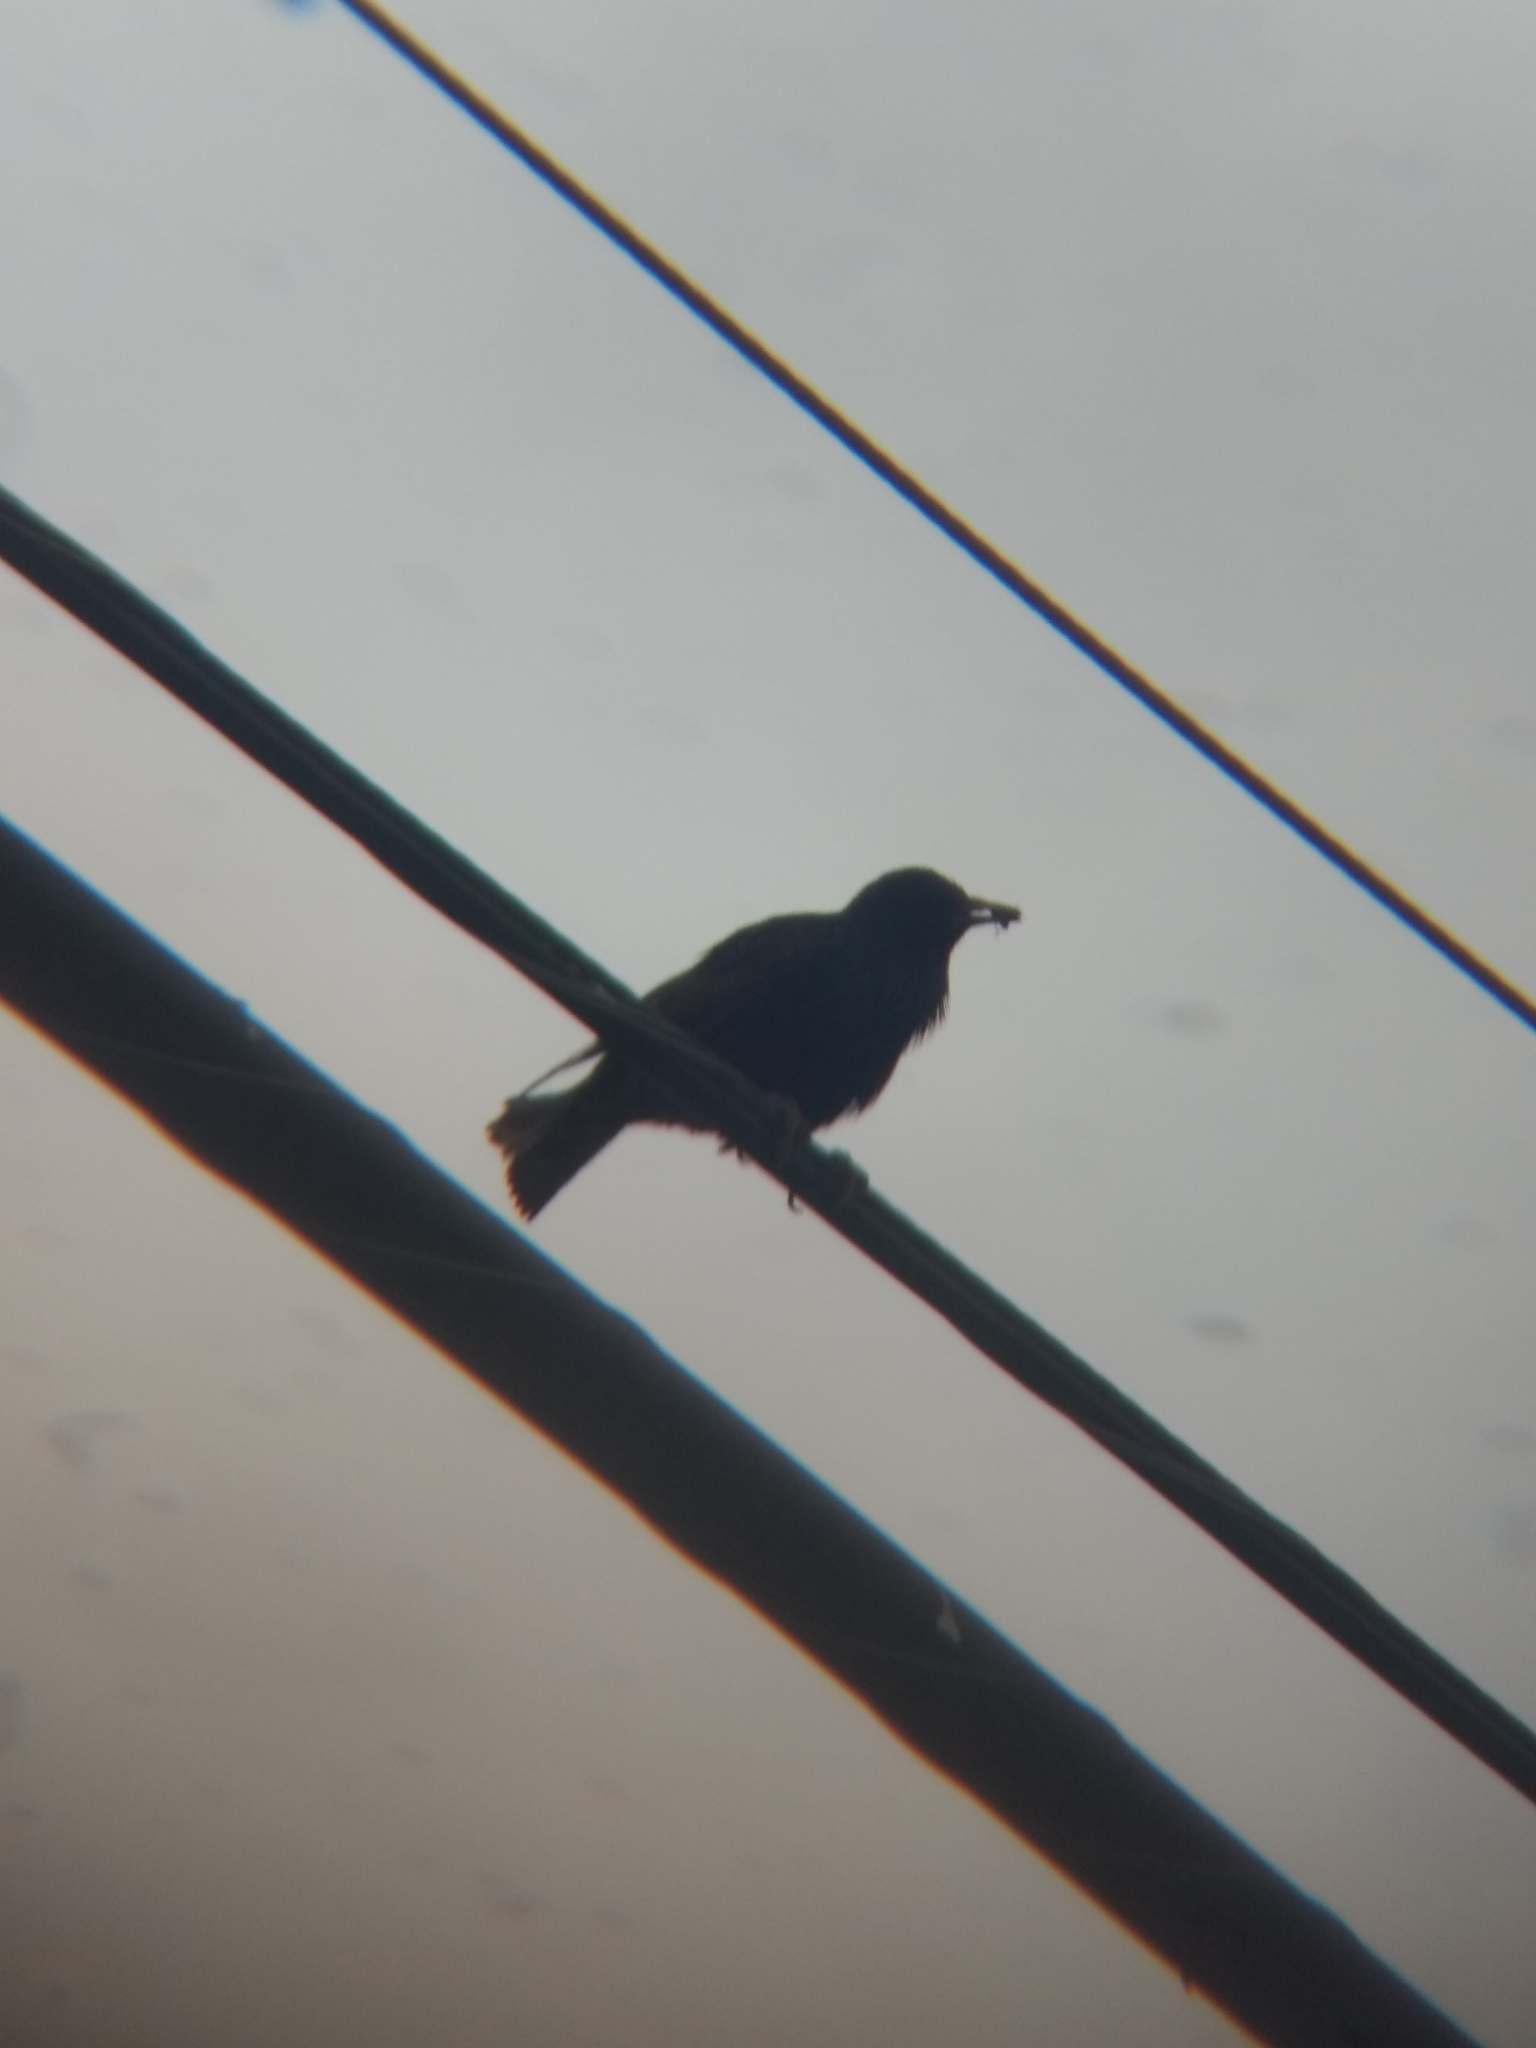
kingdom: Animalia
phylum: Chordata
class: Aves
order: Passeriformes
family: Sturnidae
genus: Sturnus
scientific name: Sturnus vulgaris
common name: Common starling
